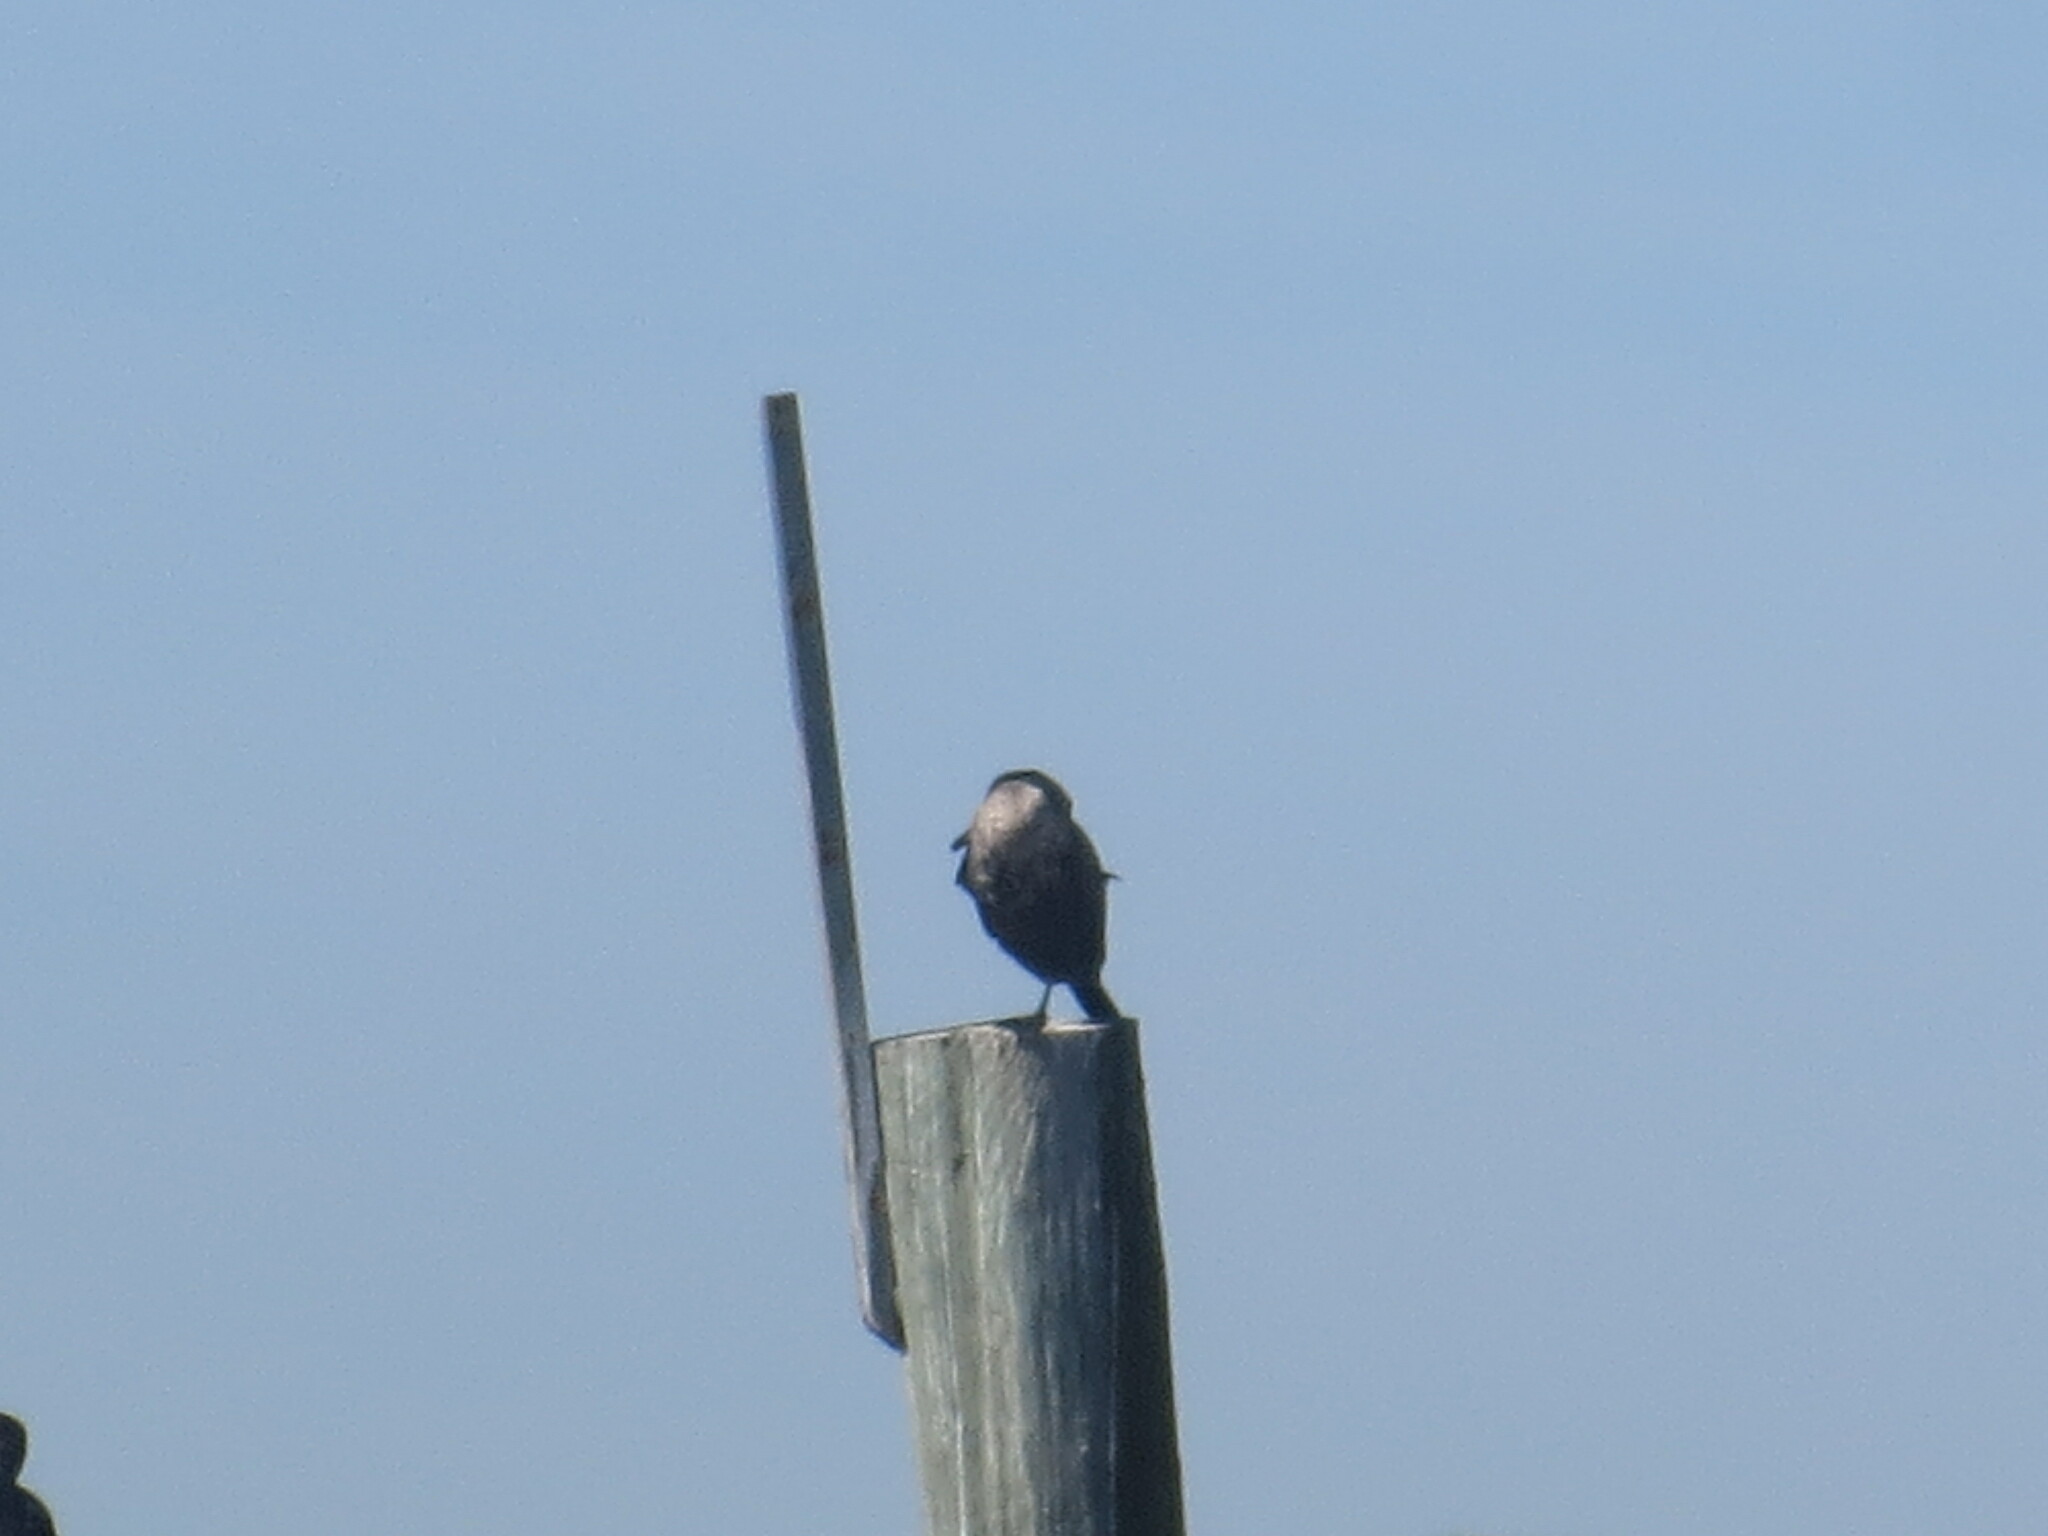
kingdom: Animalia
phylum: Chordata
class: Aves
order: Suliformes
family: Phalacrocoracidae
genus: Phalacrocorax
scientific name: Phalacrocorax auritus
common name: Double-crested cormorant
